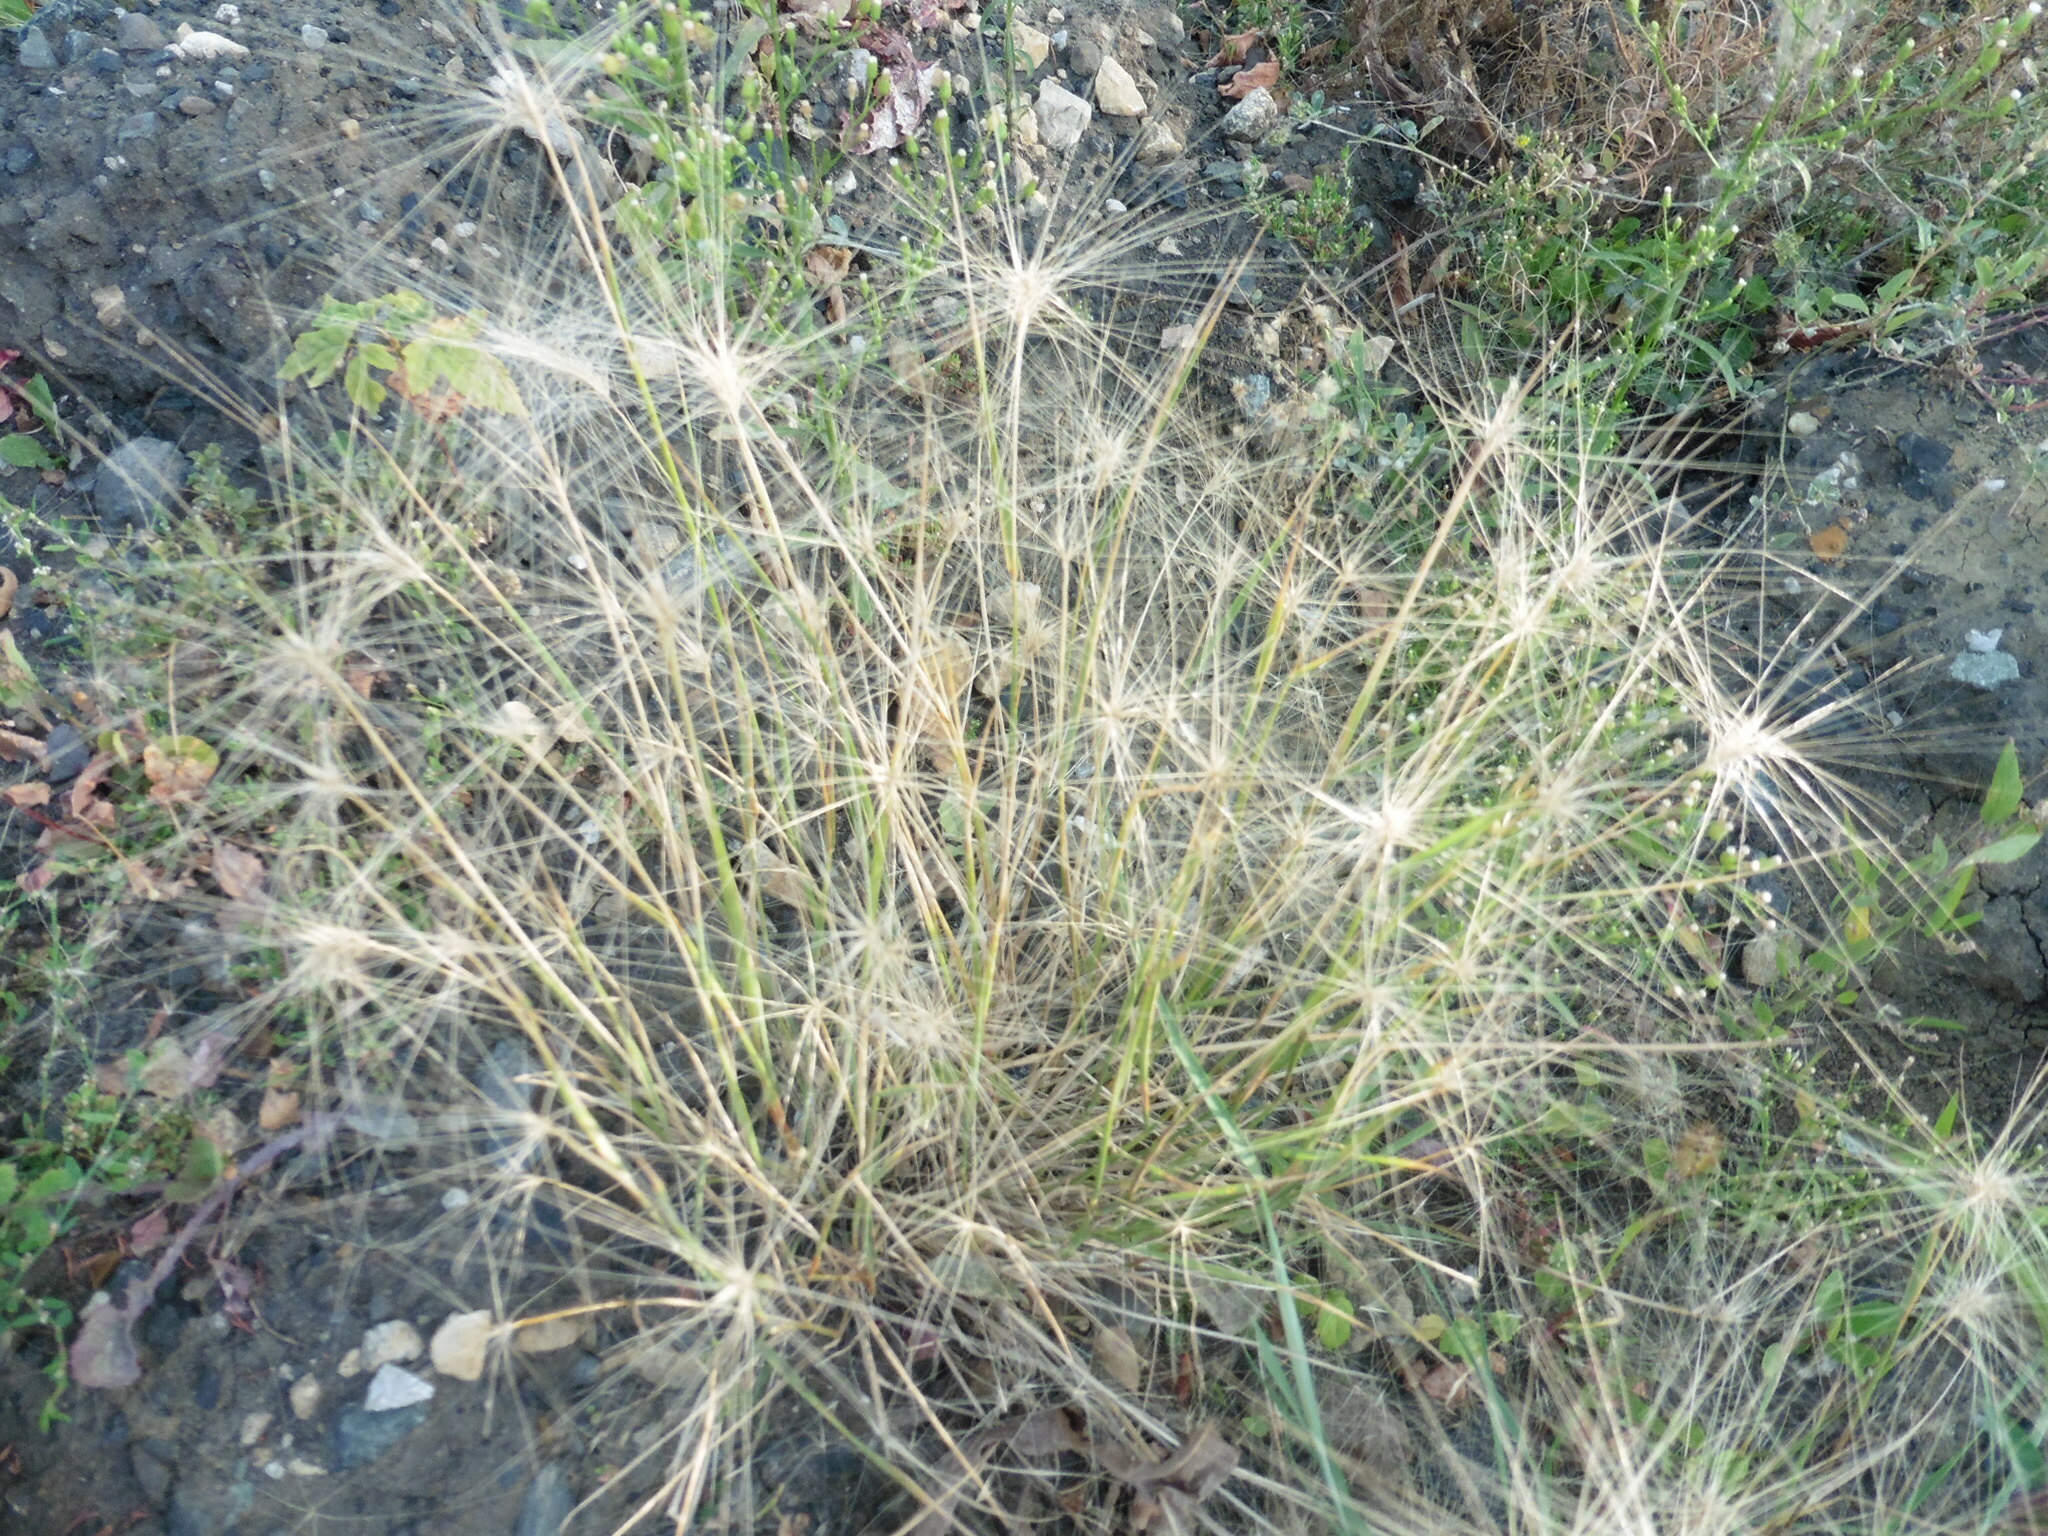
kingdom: Plantae
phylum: Tracheophyta
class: Liliopsida
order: Poales
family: Poaceae
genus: Hordeum
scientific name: Hordeum jubatum
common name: Foxtail barley
